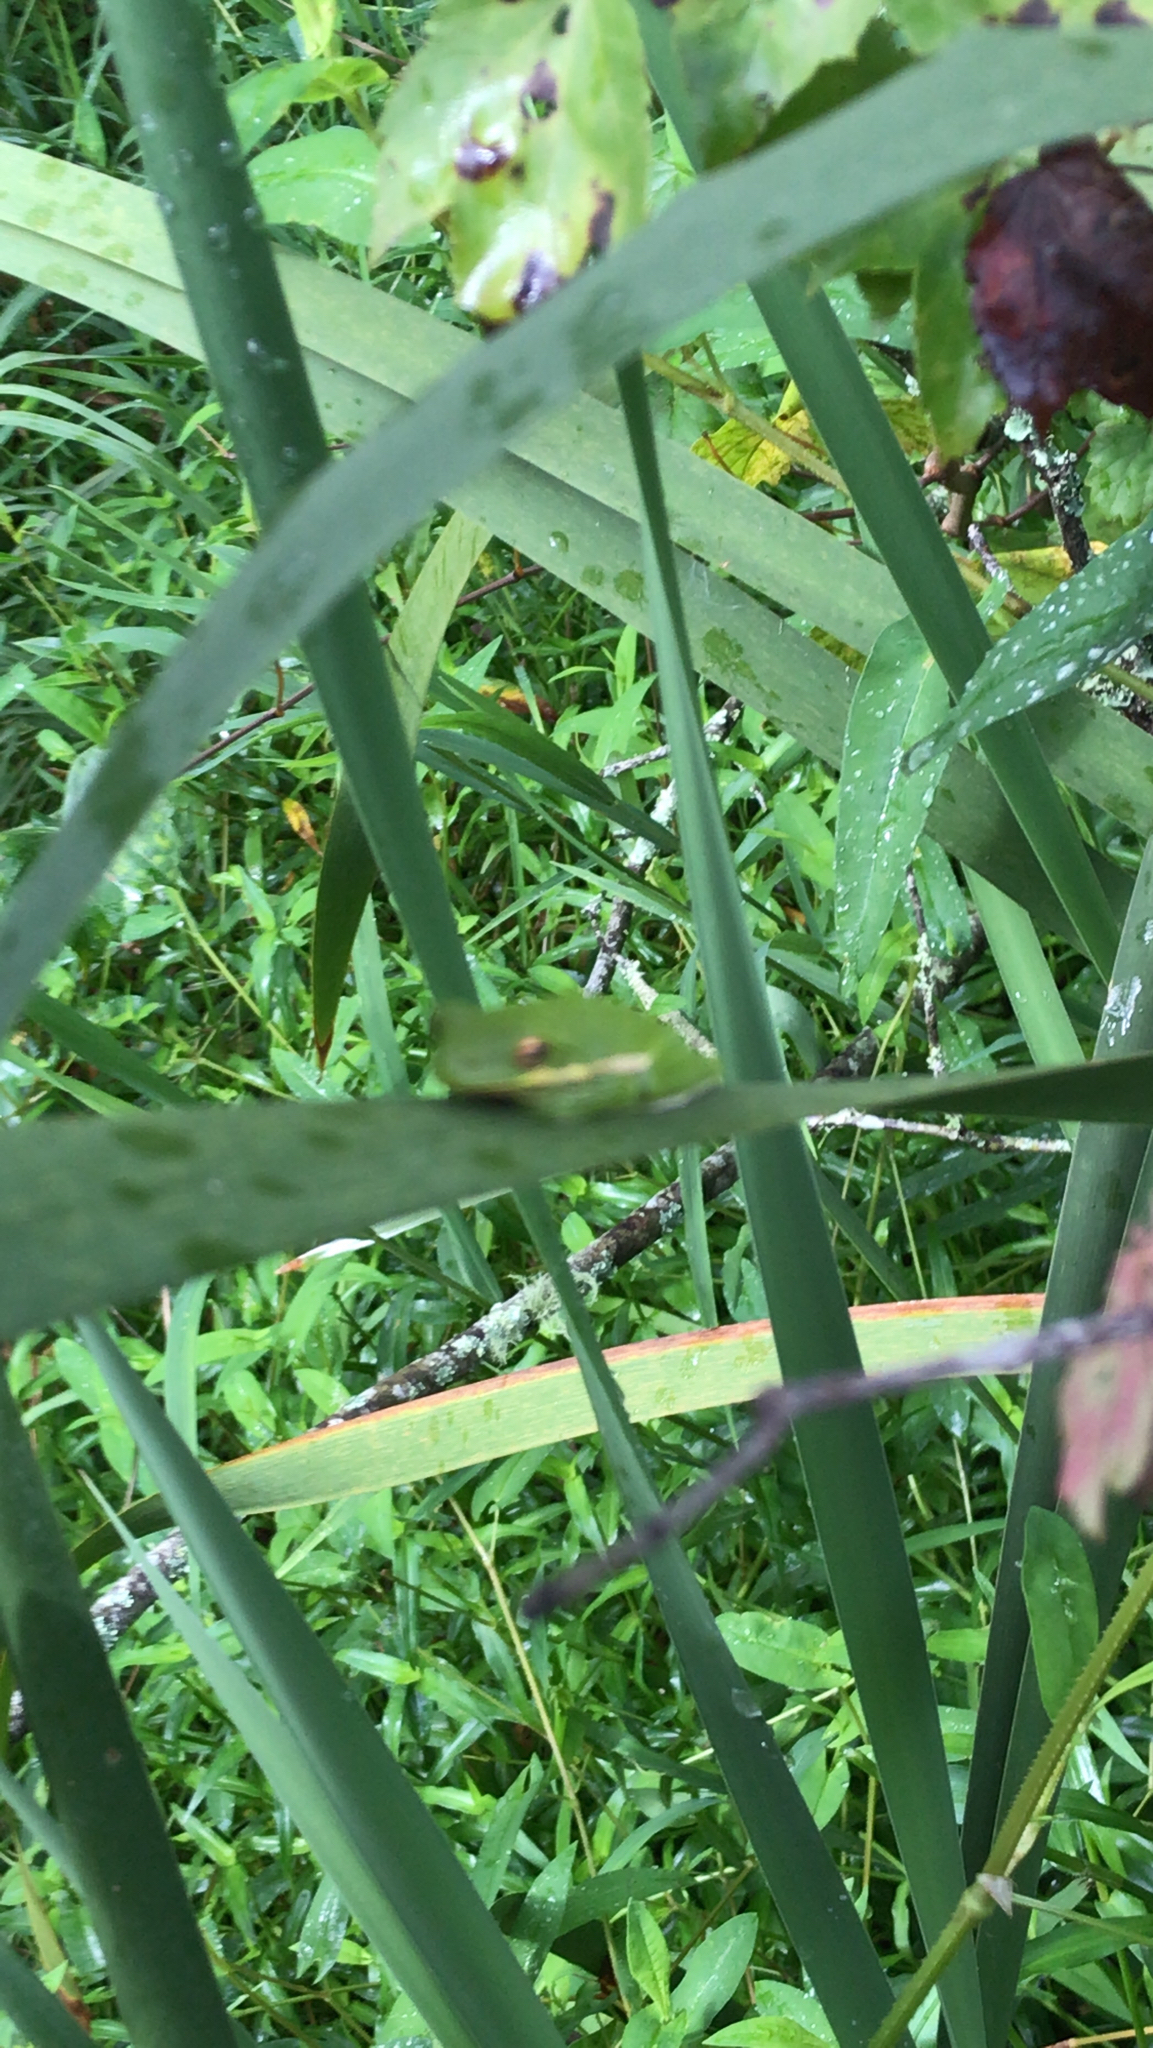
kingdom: Animalia
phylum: Chordata
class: Amphibia
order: Anura
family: Hylidae
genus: Dryophytes
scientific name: Dryophytes cinereus
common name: Green treefrog
